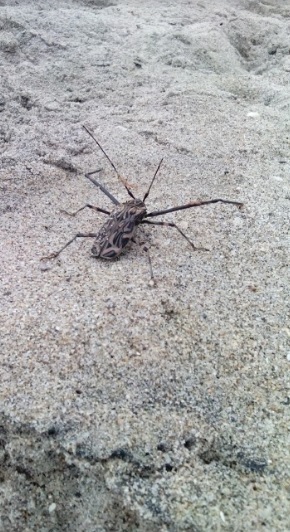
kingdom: Animalia
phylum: Arthropoda
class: Insecta
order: Coleoptera
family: Cerambycidae
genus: Acrocinus
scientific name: Acrocinus longimanus
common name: Arlequin
